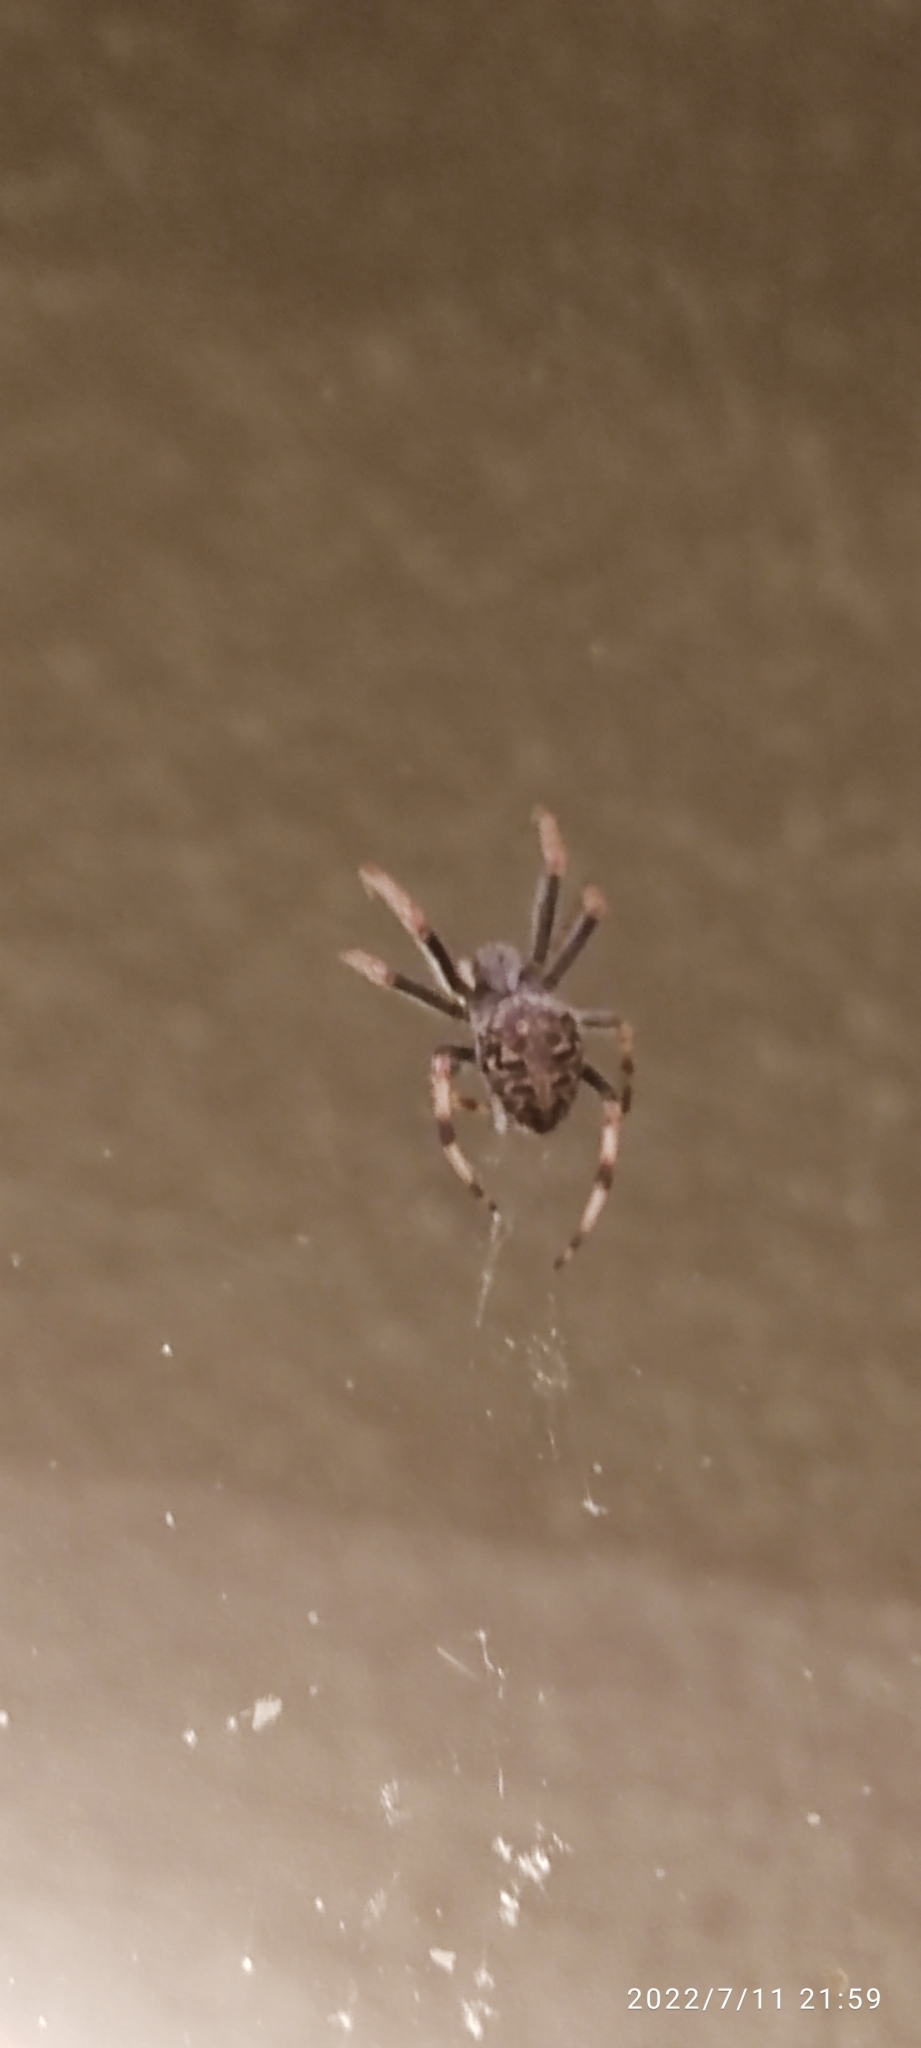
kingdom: Animalia
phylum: Arthropoda
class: Arachnida
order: Araneae
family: Araneidae
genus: Neoscona
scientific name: Neoscona nautica
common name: Orb weavers
